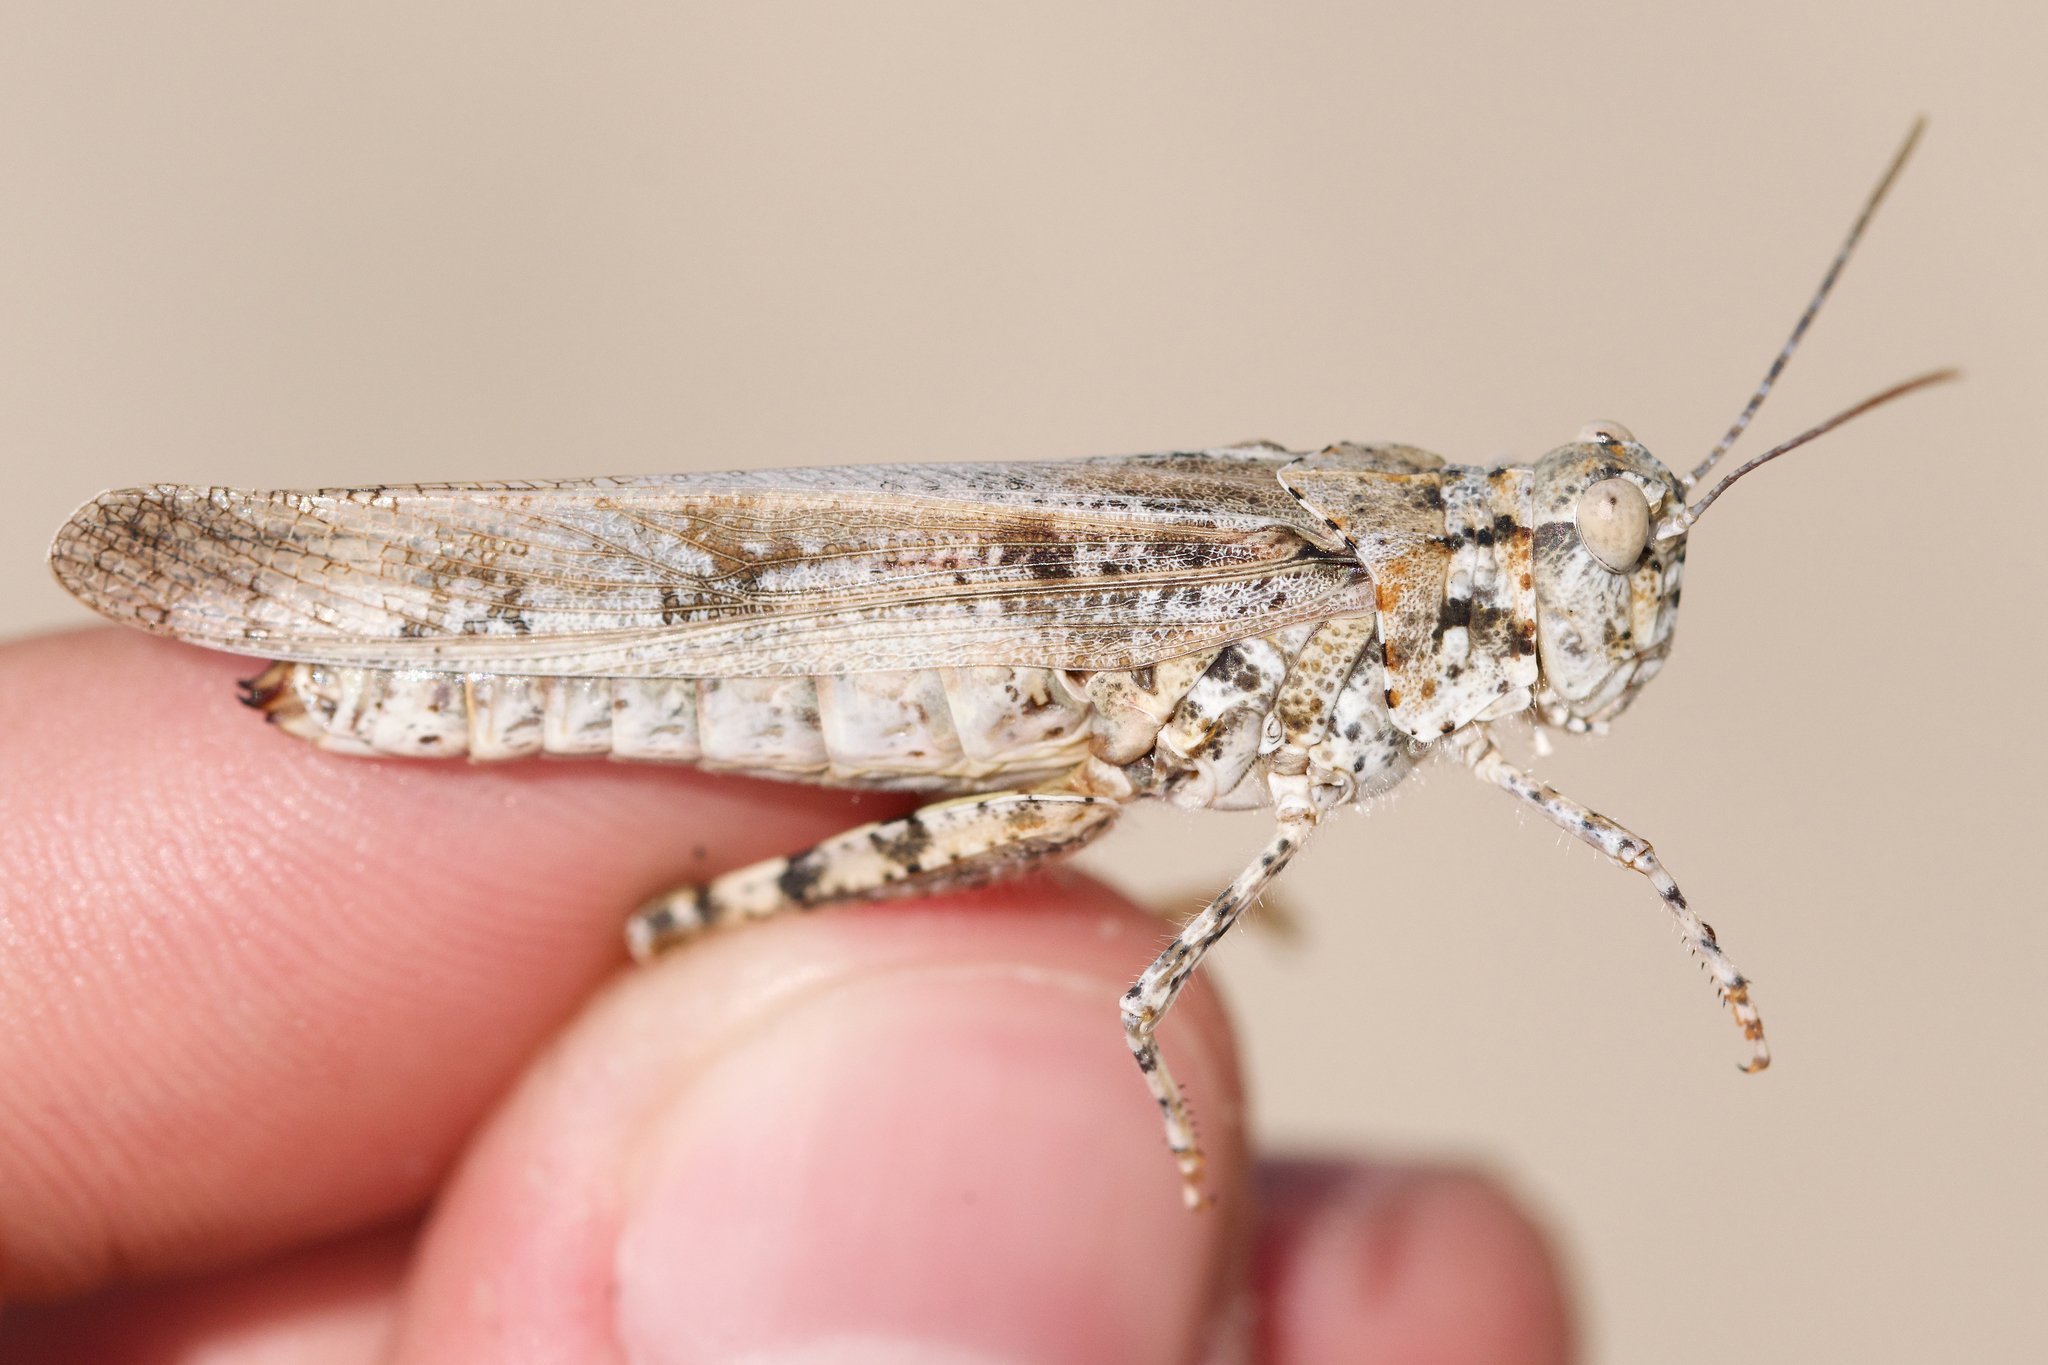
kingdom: Animalia
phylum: Arthropoda
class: Insecta
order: Orthoptera
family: Acrididae
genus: Trimerotropis
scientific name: Trimerotropis maritima
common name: Seaside locust
